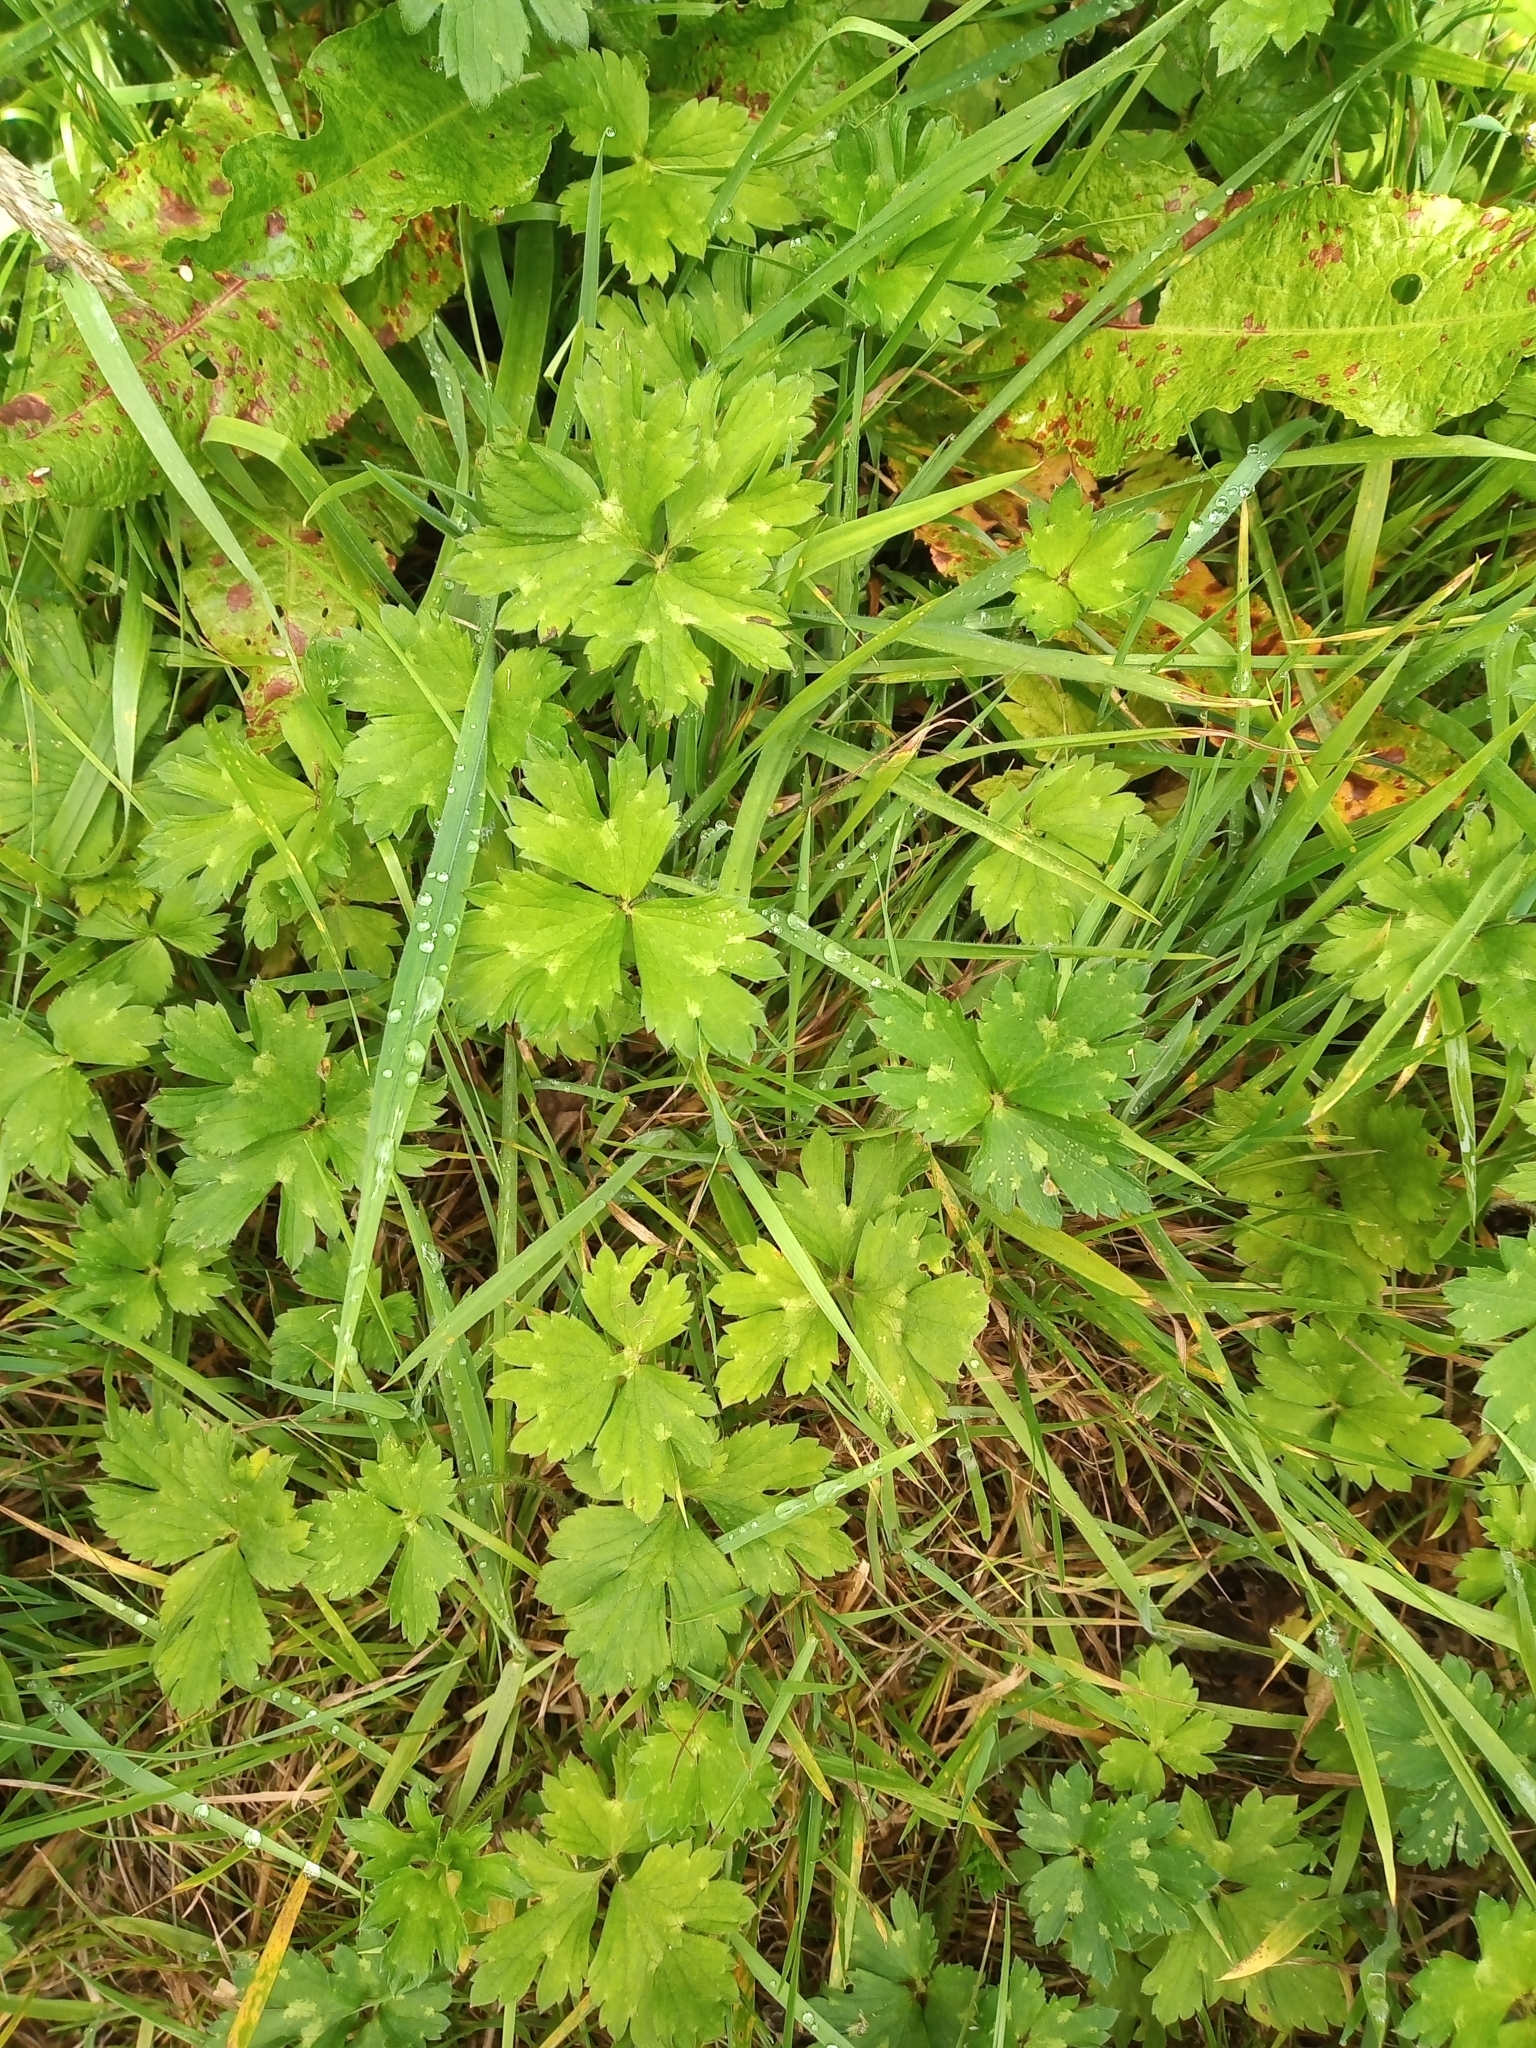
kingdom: Plantae
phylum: Tracheophyta
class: Magnoliopsida
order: Ranunculales
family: Ranunculaceae
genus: Ranunculus
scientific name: Ranunculus repens
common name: Creeping buttercup
